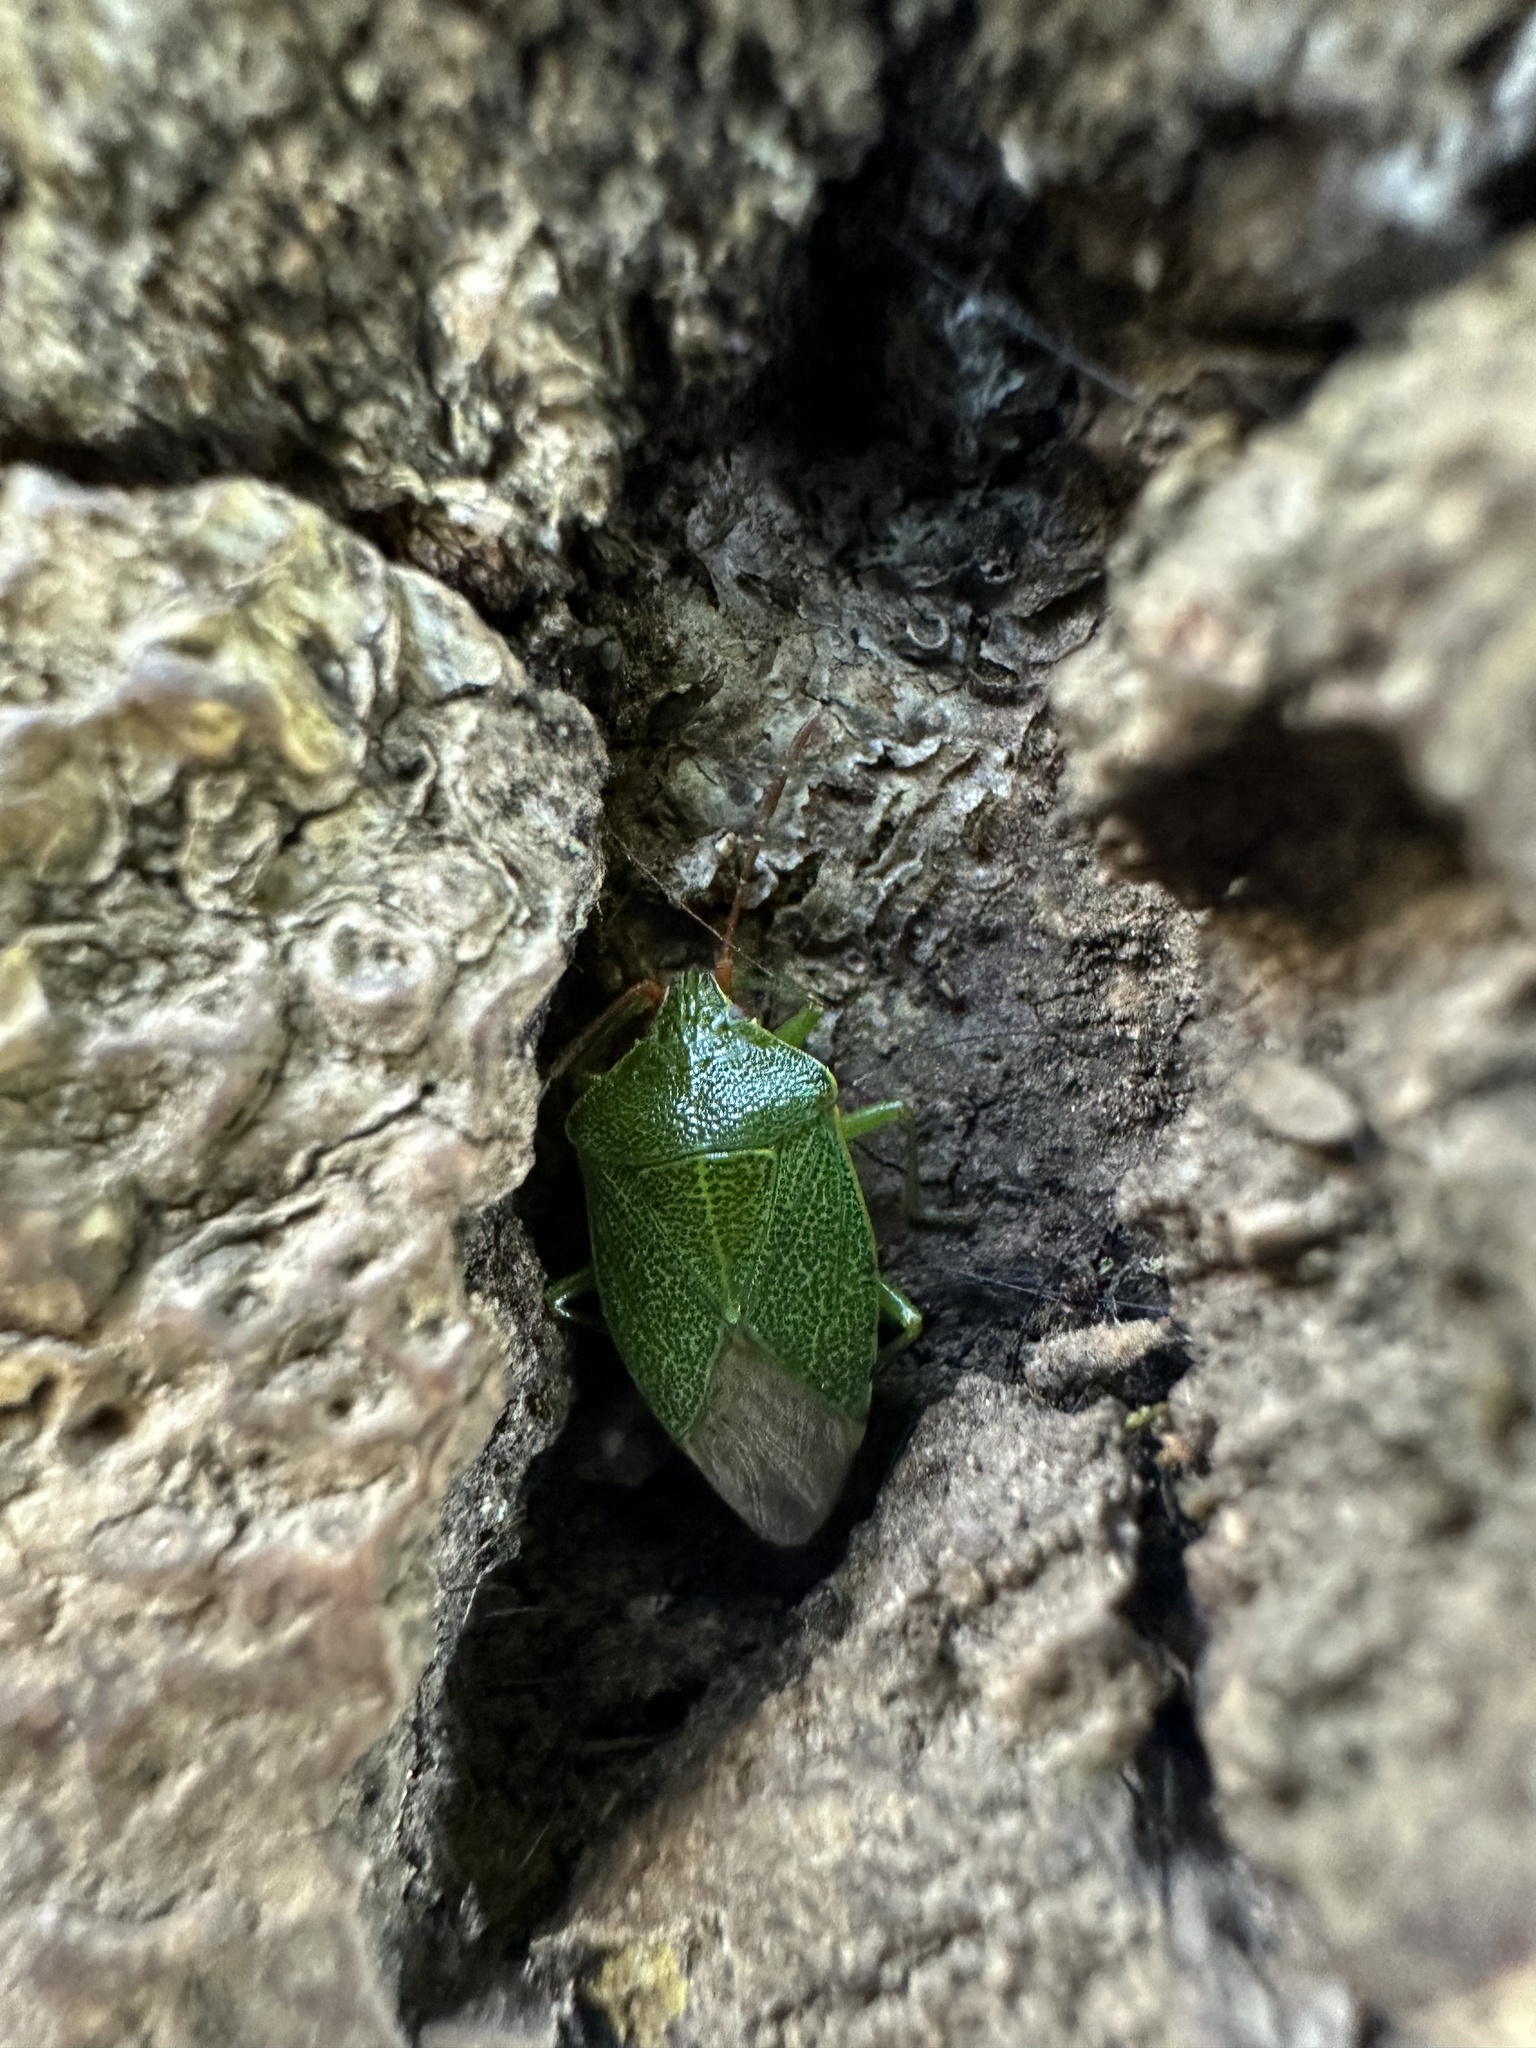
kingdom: Animalia
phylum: Arthropoda
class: Insecta
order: Hemiptera
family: Acanthosomatidae
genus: Sinopla
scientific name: Sinopla perpunctatus
